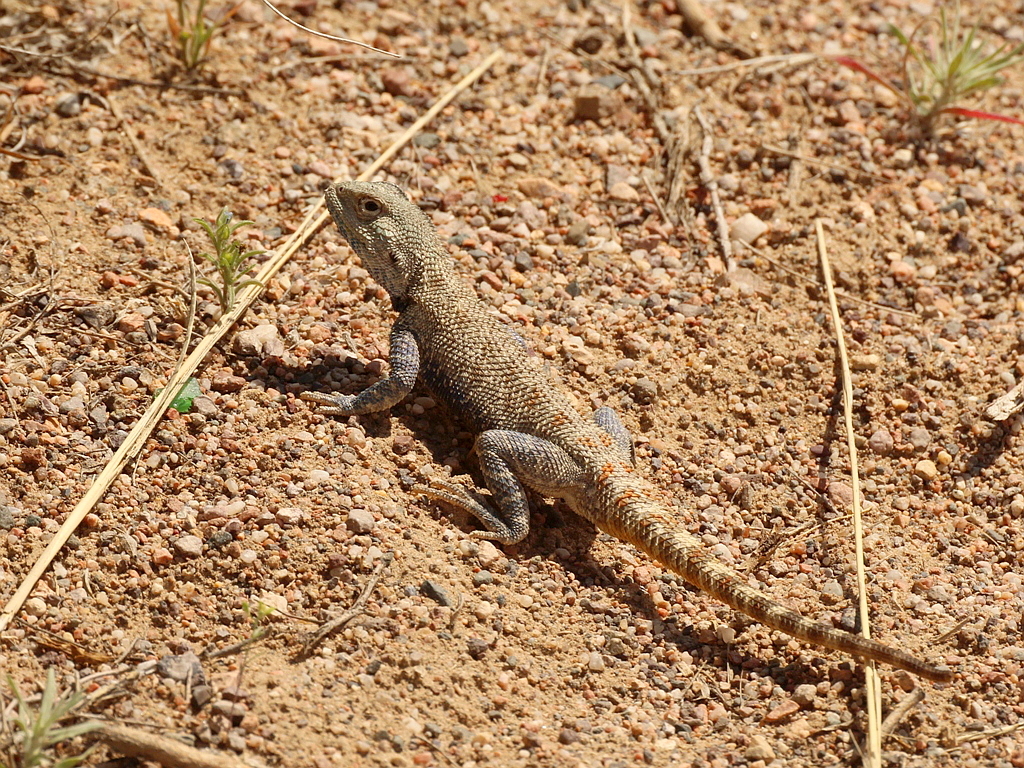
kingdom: Animalia
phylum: Chordata
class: Squamata
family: Agamidae
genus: Trapelus
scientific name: Trapelus sanguinolentus
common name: Steppe agama
